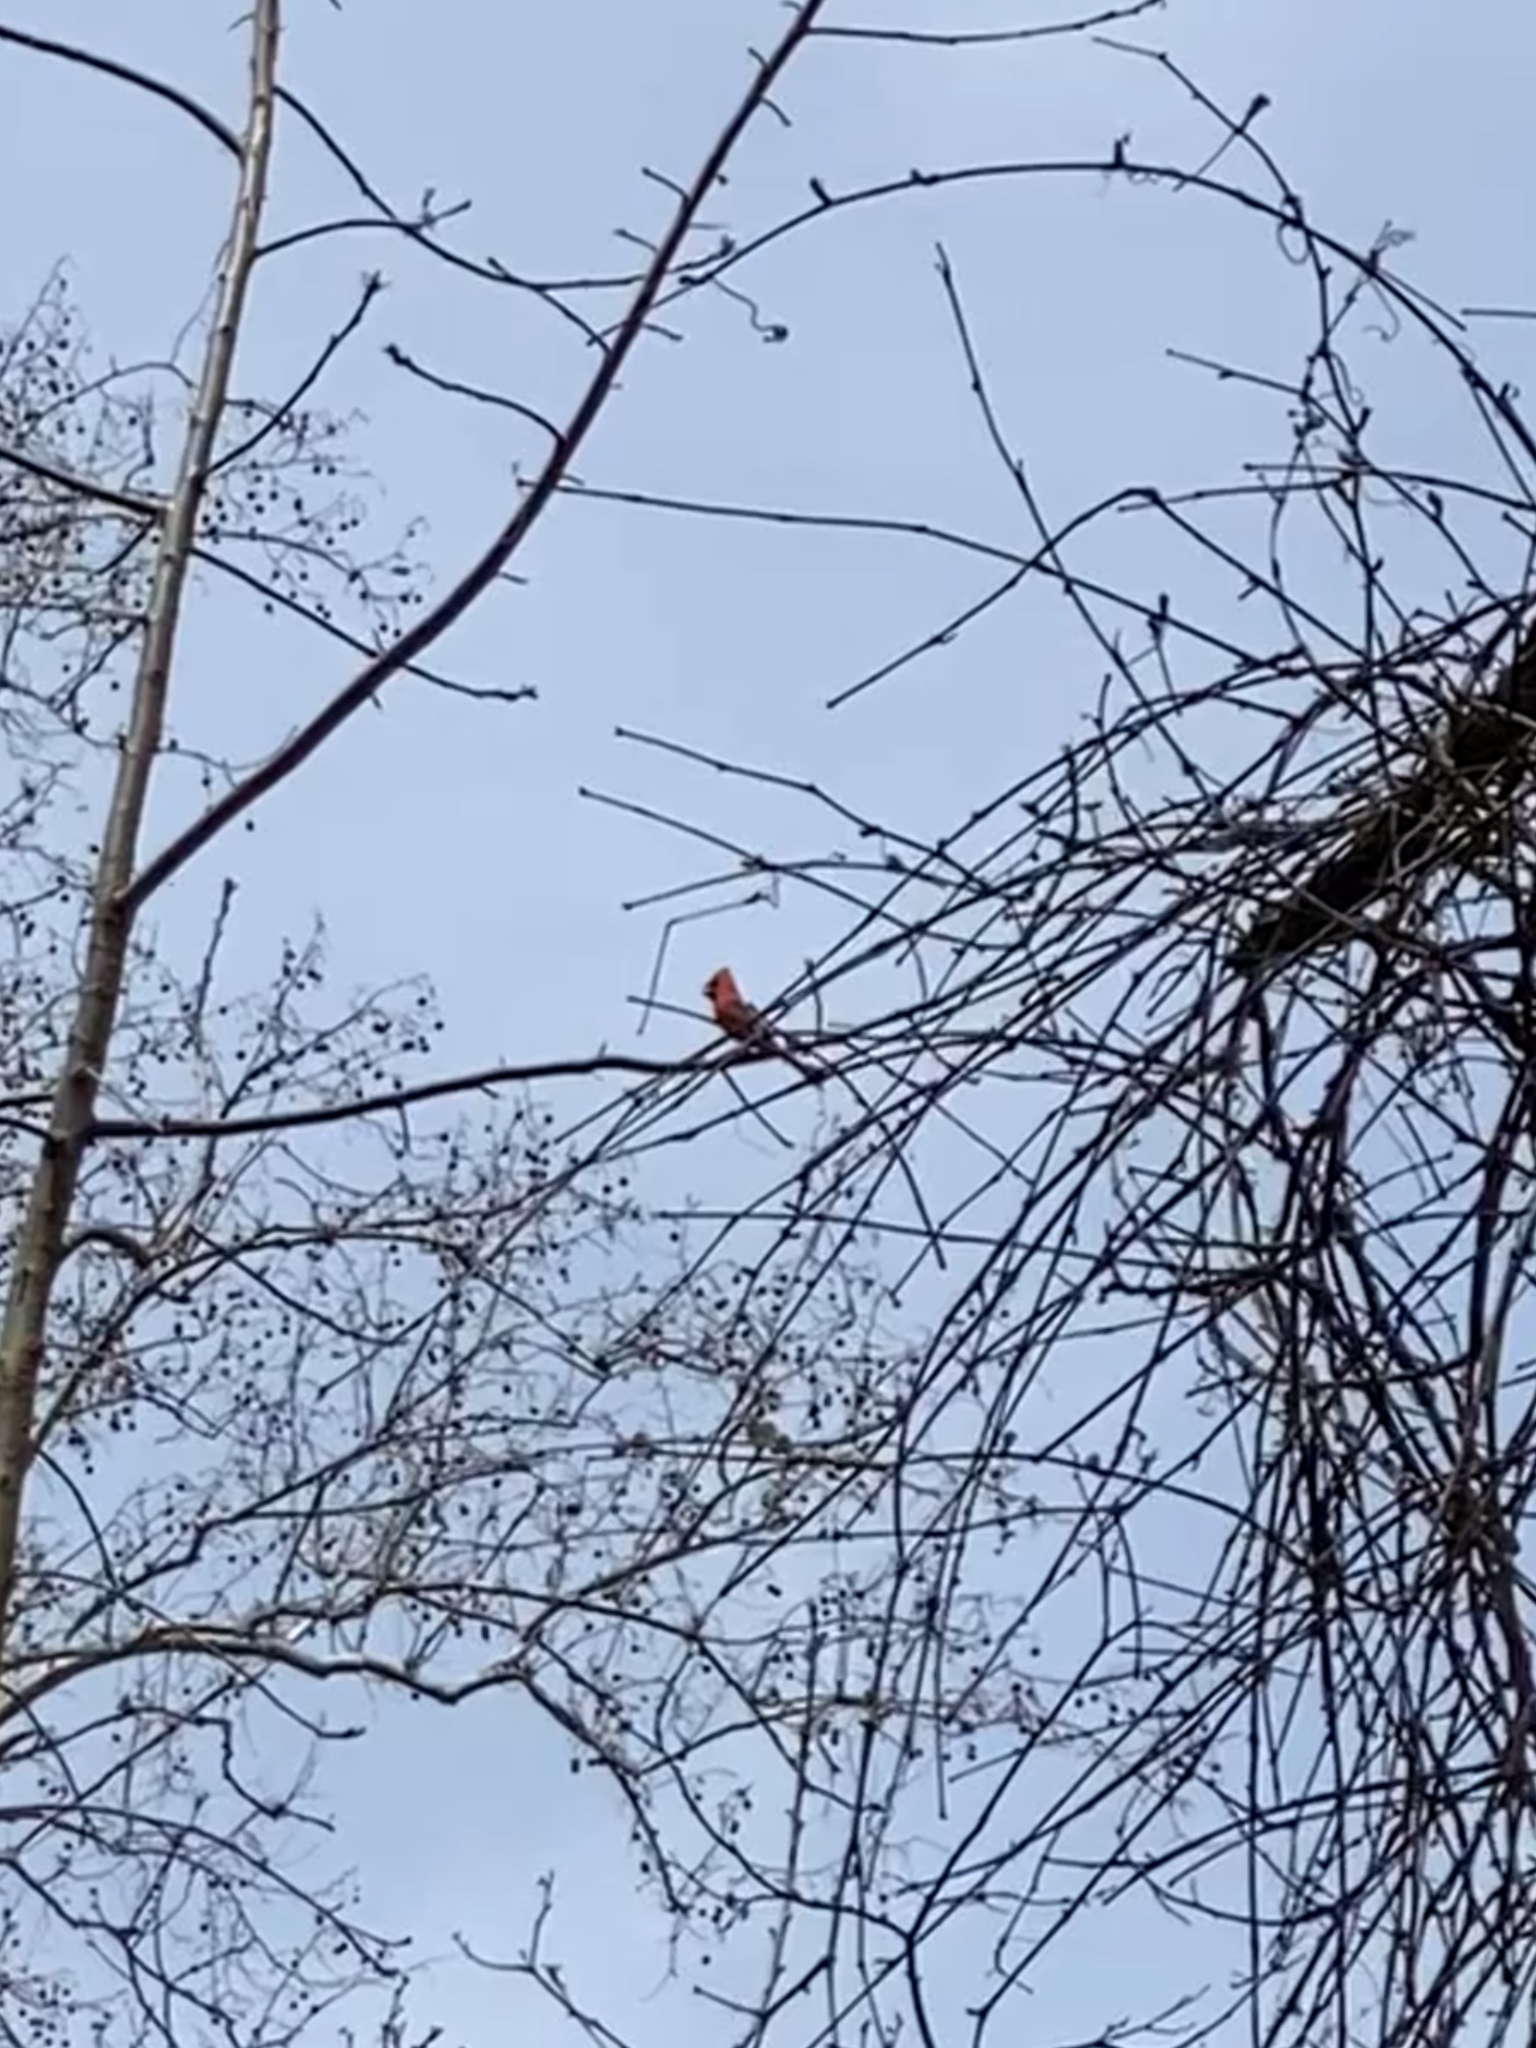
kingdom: Animalia
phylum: Chordata
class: Aves
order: Passeriformes
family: Cardinalidae
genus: Cardinalis
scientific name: Cardinalis cardinalis
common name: Northern cardinal
